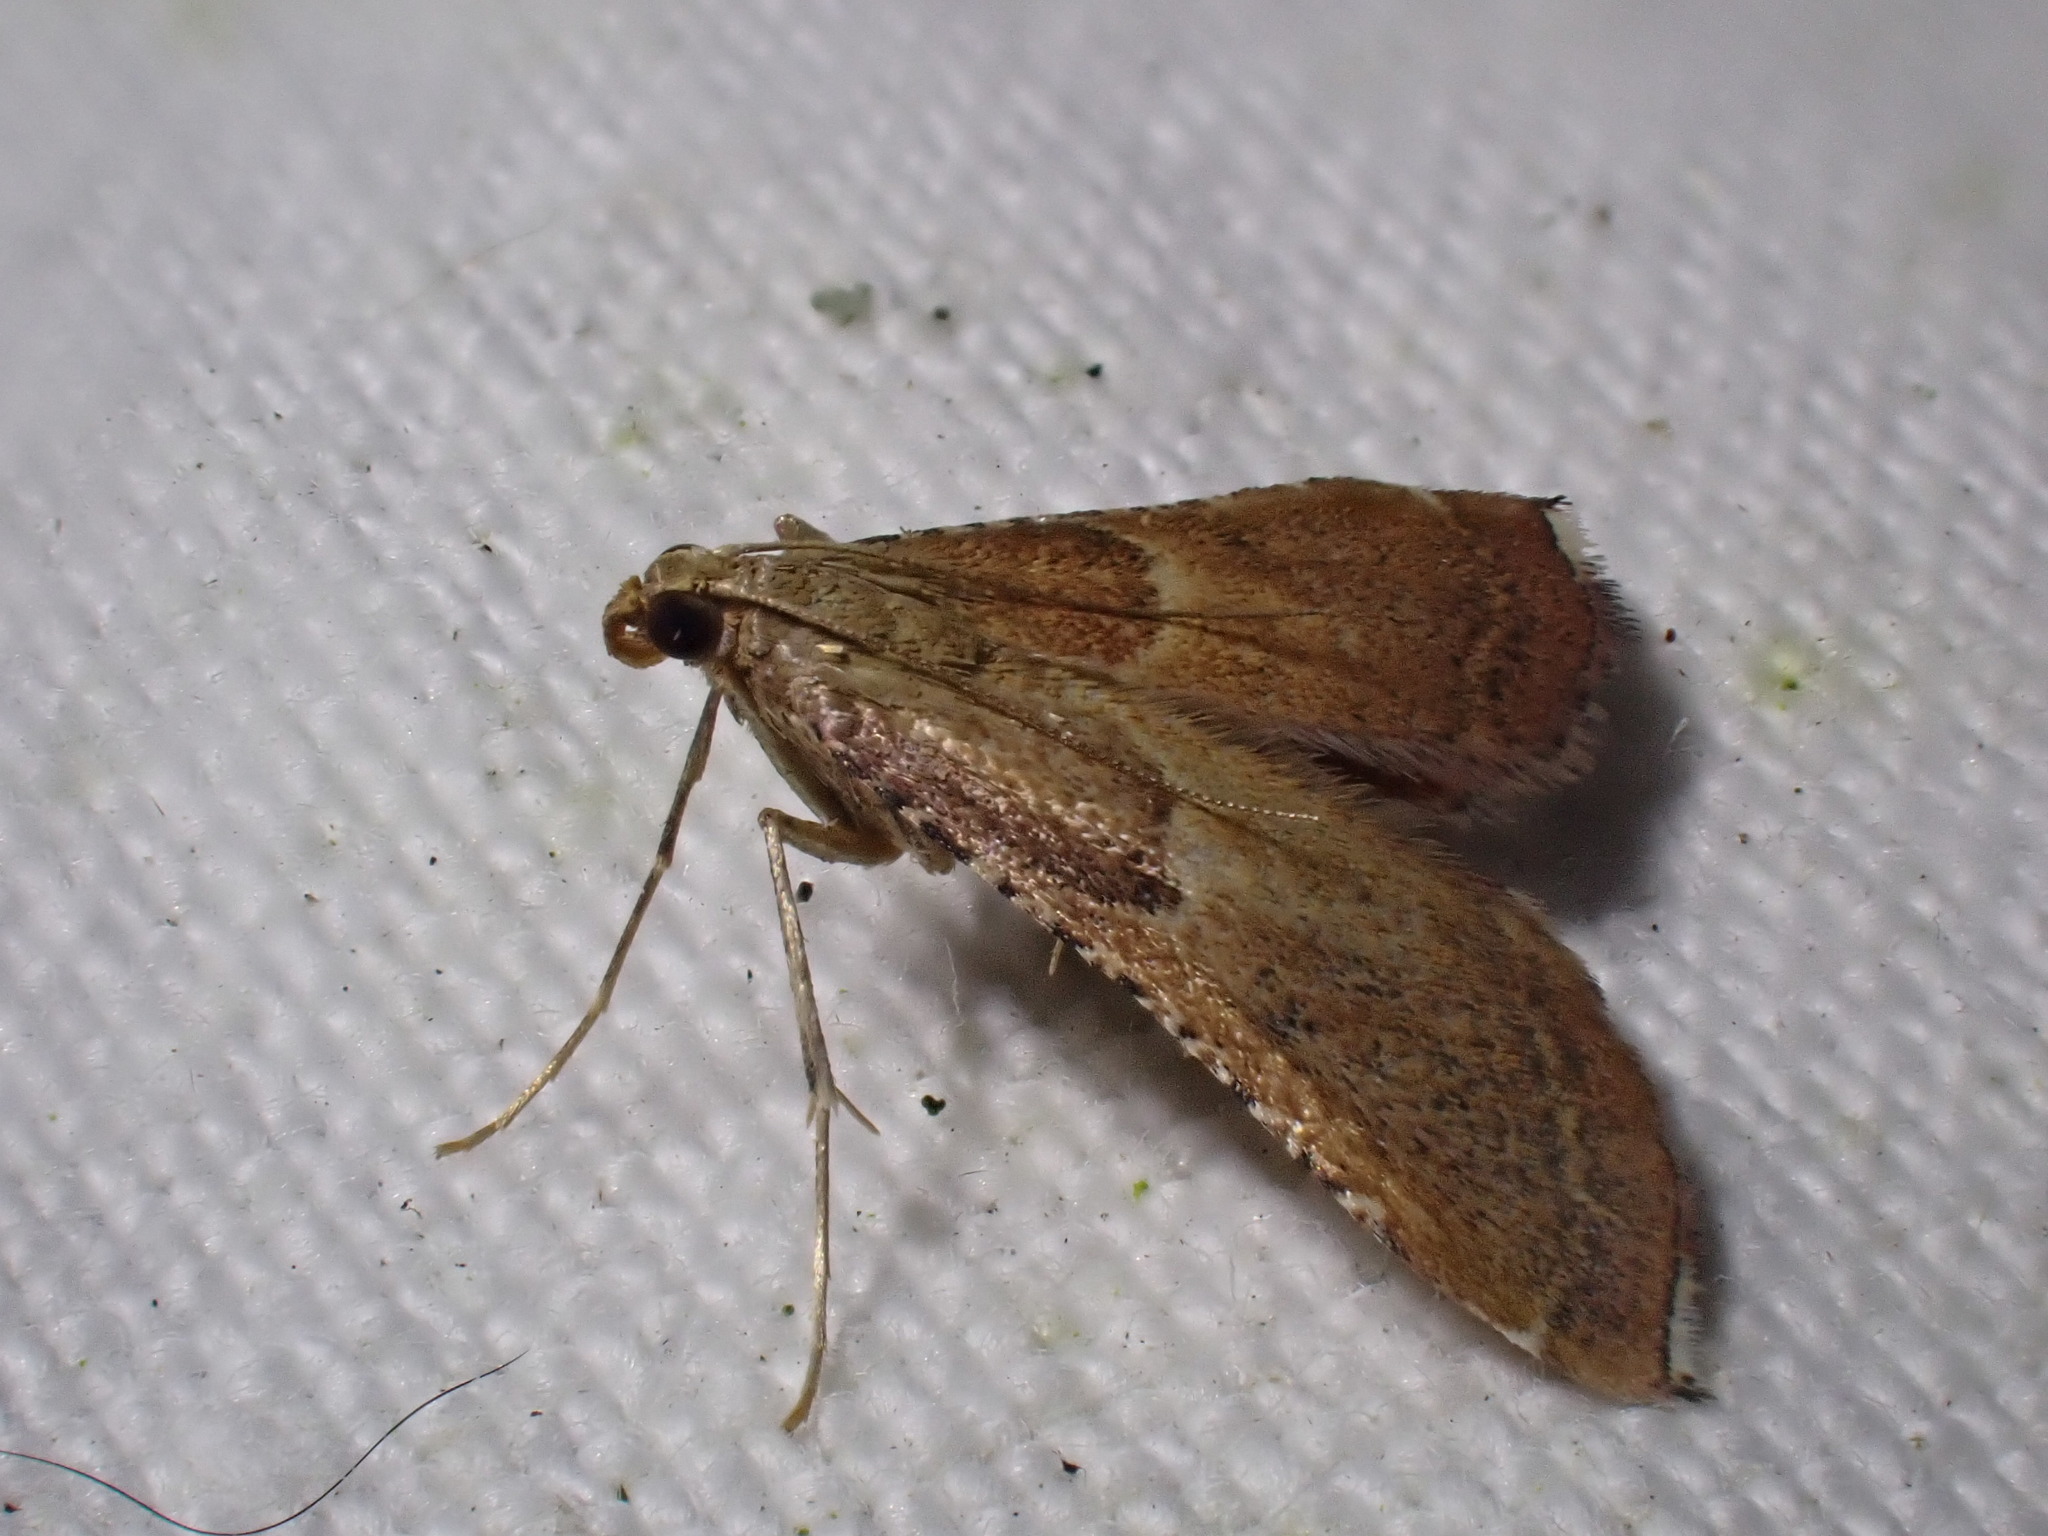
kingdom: Animalia
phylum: Arthropoda
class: Insecta
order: Lepidoptera
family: Pyralidae
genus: Endotricha
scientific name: Endotricha flammealis
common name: Rosy tabby
